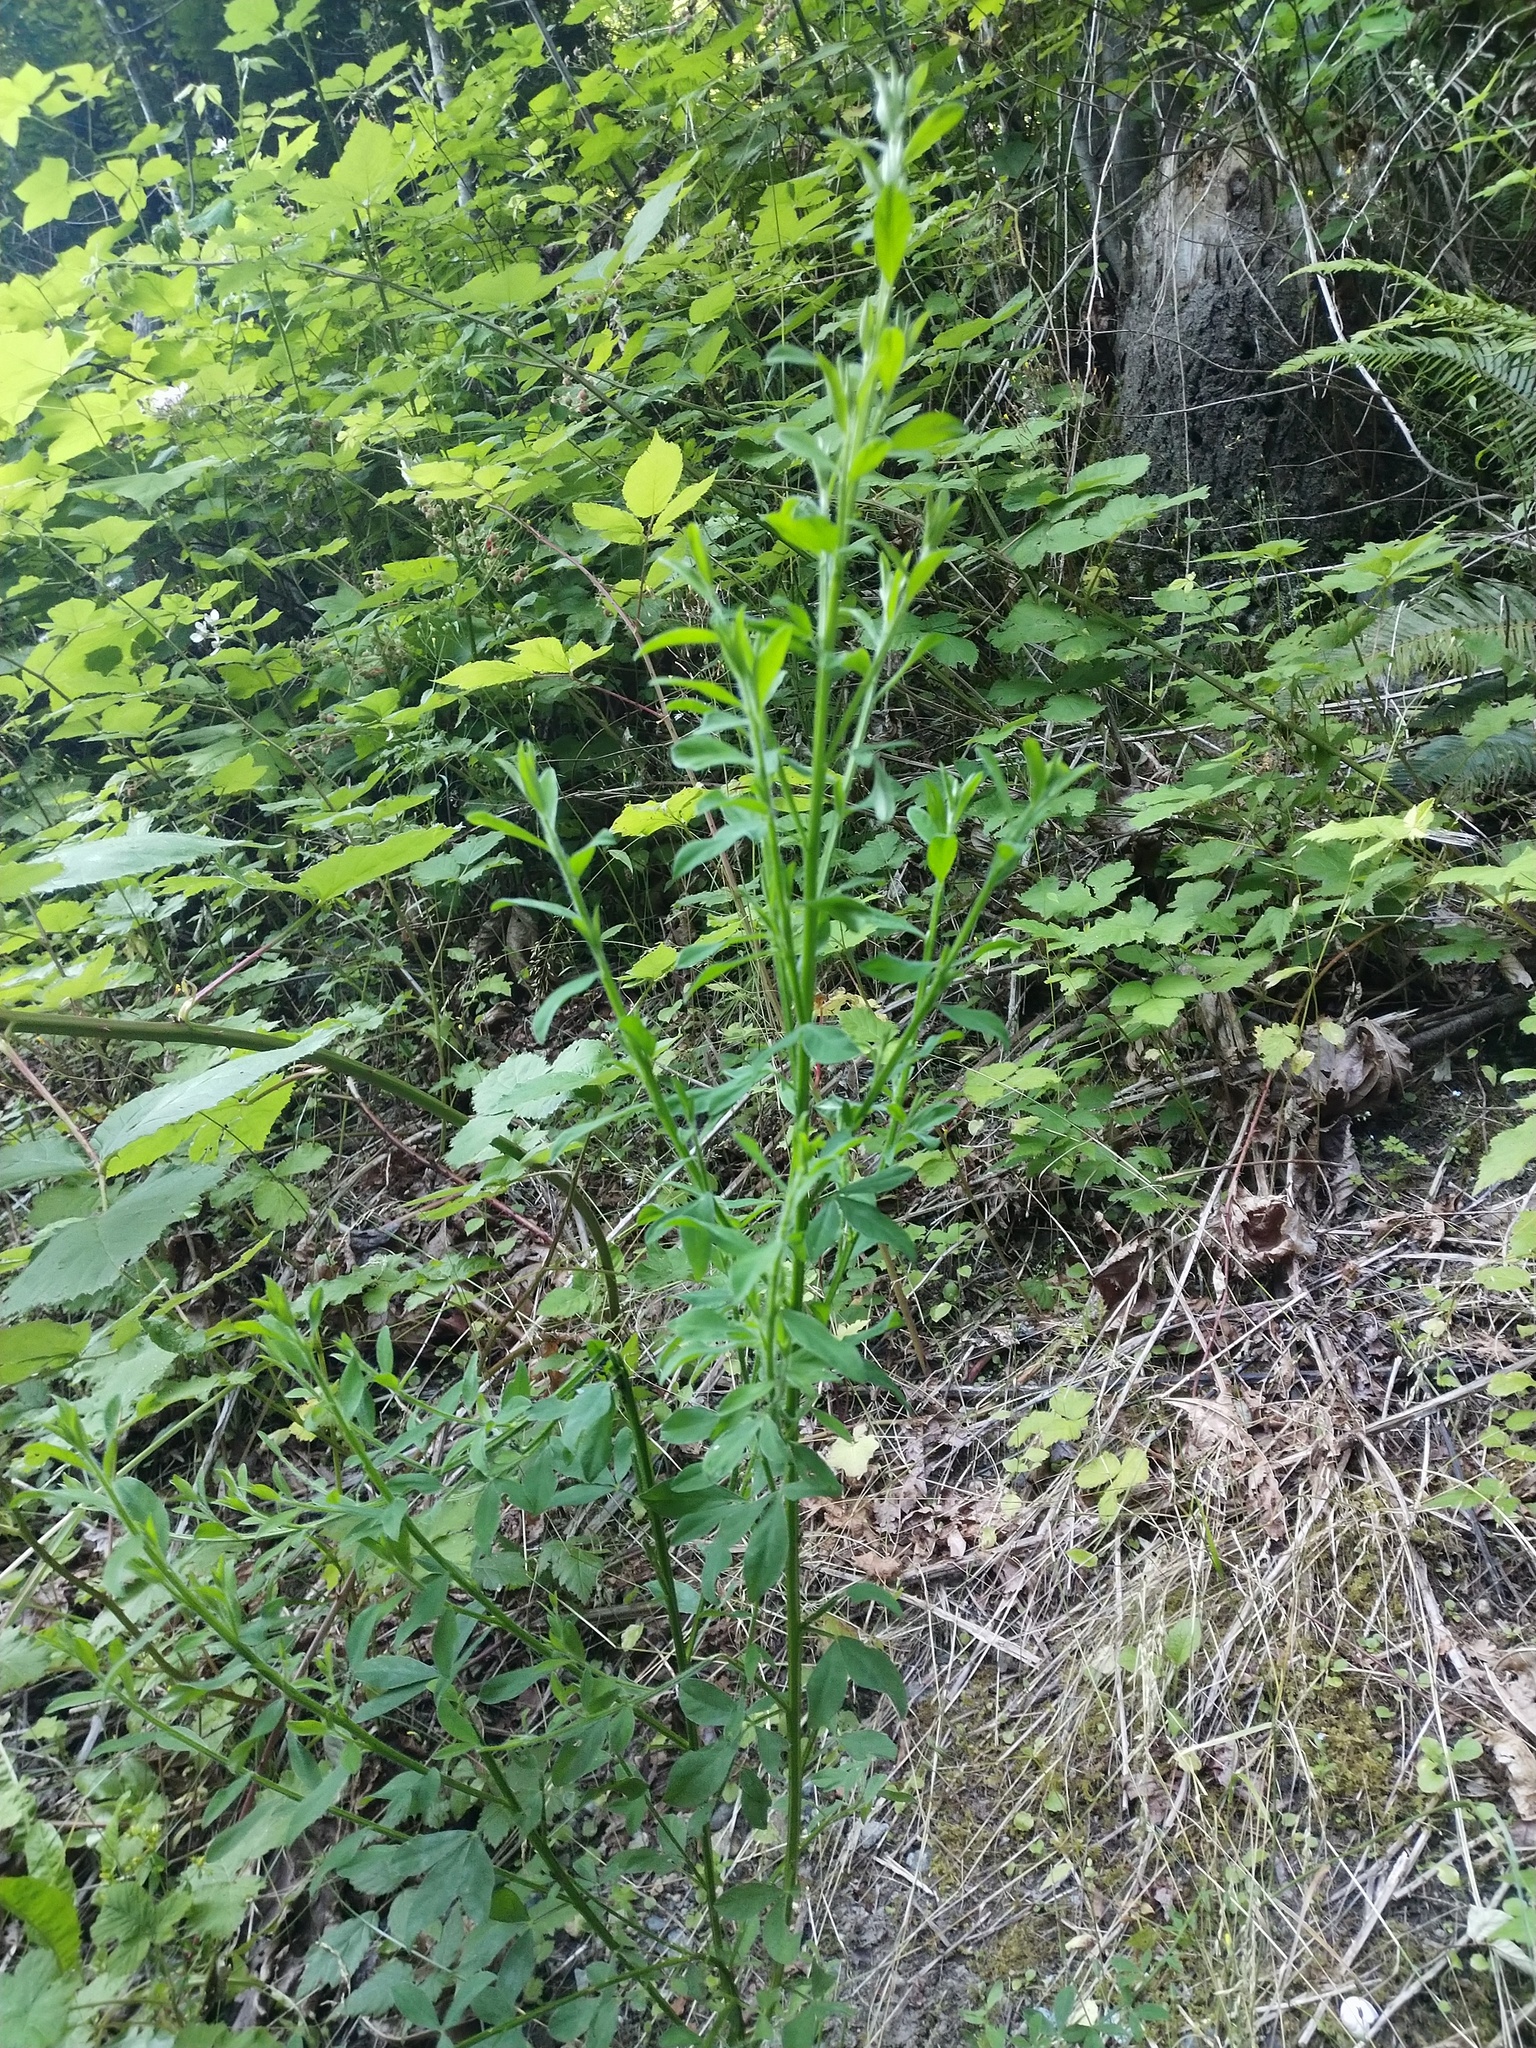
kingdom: Plantae
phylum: Tracheophyta
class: Magnoliopsida
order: Fabales
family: Fabaceae
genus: Cytisus
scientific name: Cytisus scoparius
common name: Scotch broom
